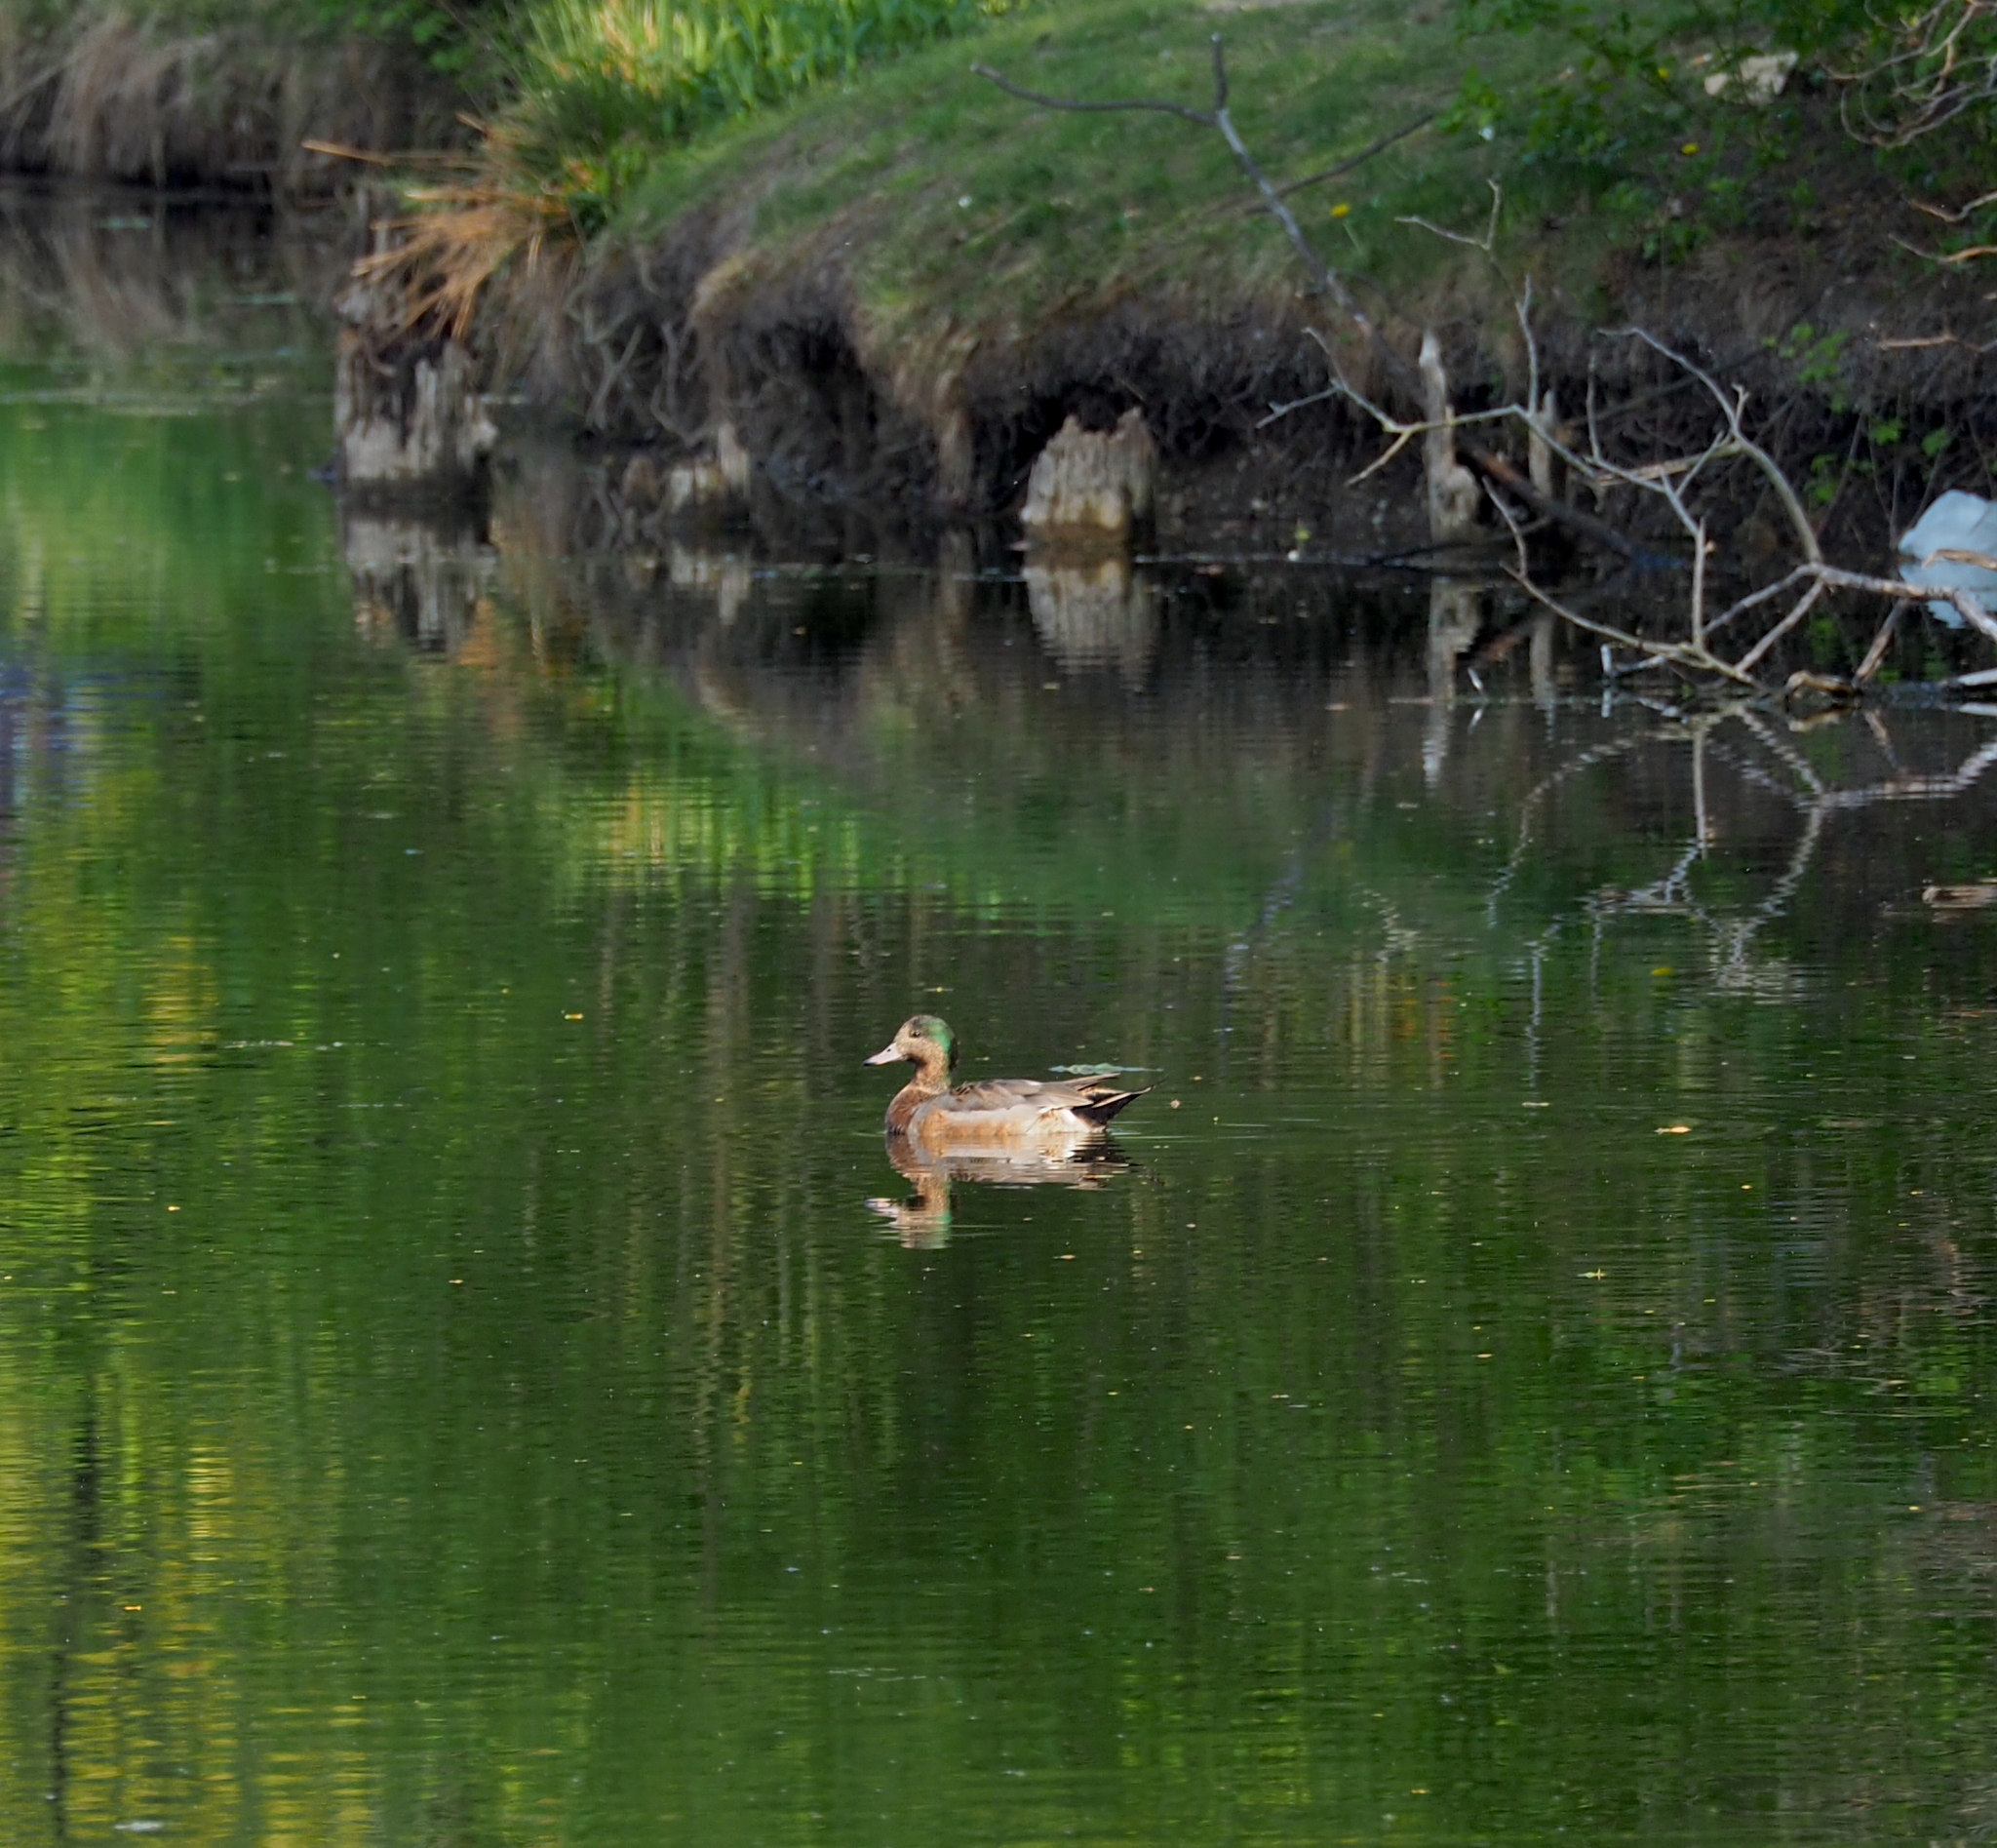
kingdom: Animalia
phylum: Chordata
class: Aves
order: Anseriformes
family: Anatidae
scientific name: Anatidae
